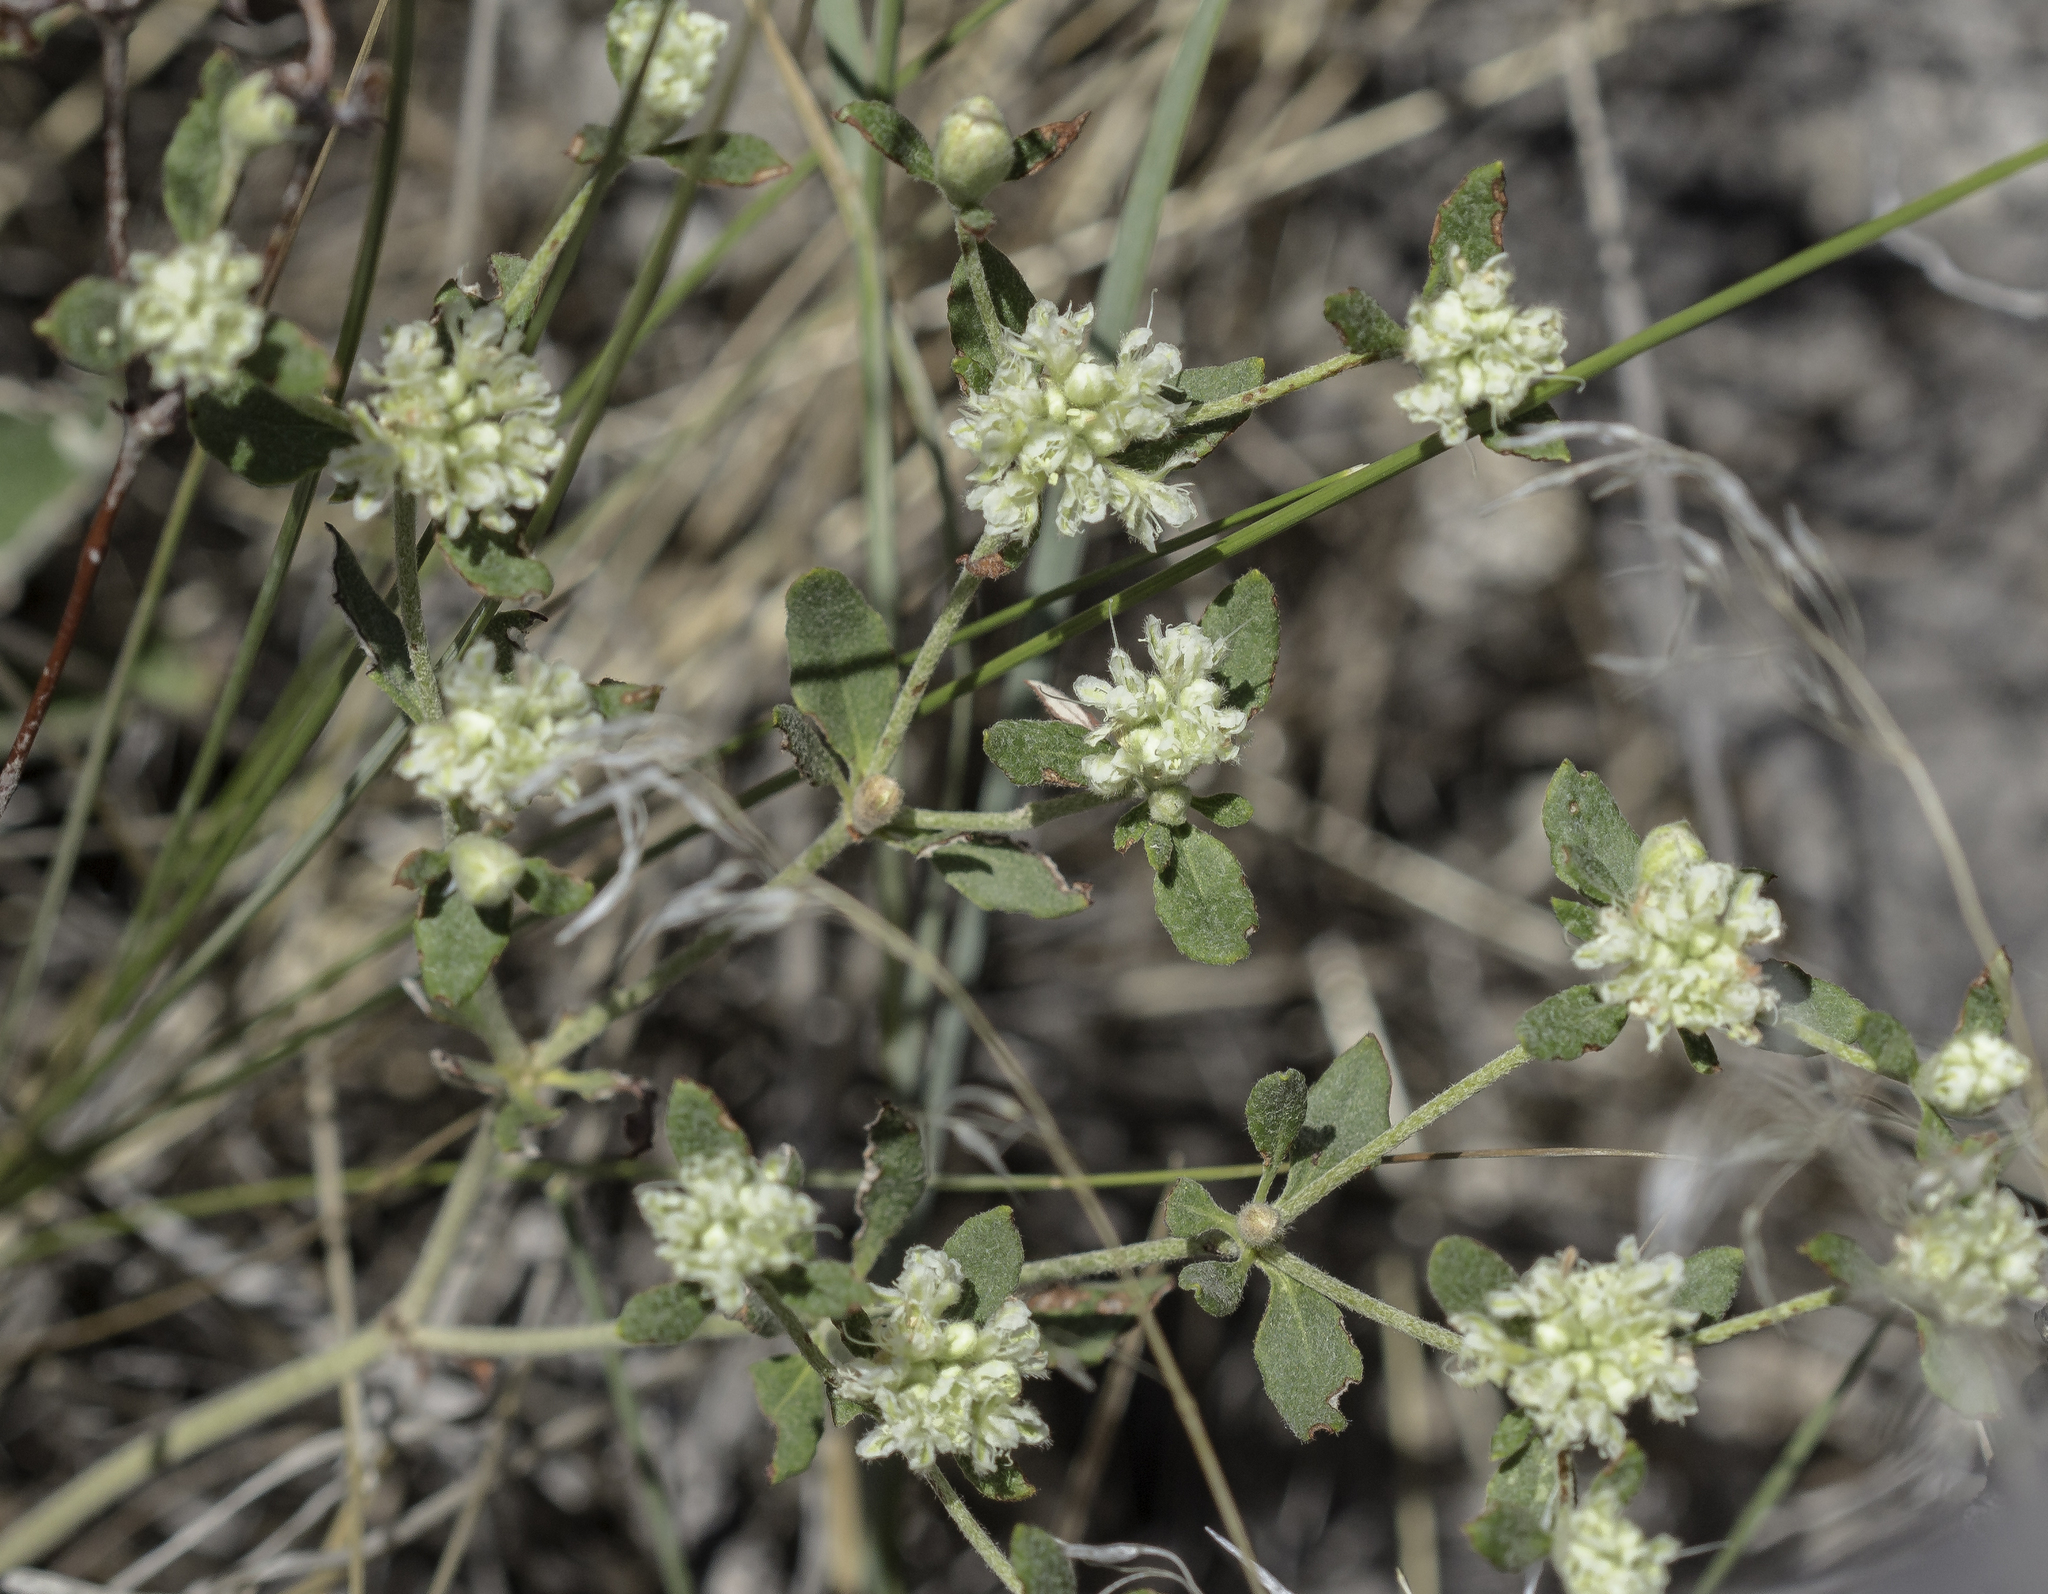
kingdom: Plantae
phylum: Tracheophyta
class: Magnoliopsida
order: Caryophyllales
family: Polygonaceae
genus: Eriogonum
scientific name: Eriogonum jamesii
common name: Antelope-sage
